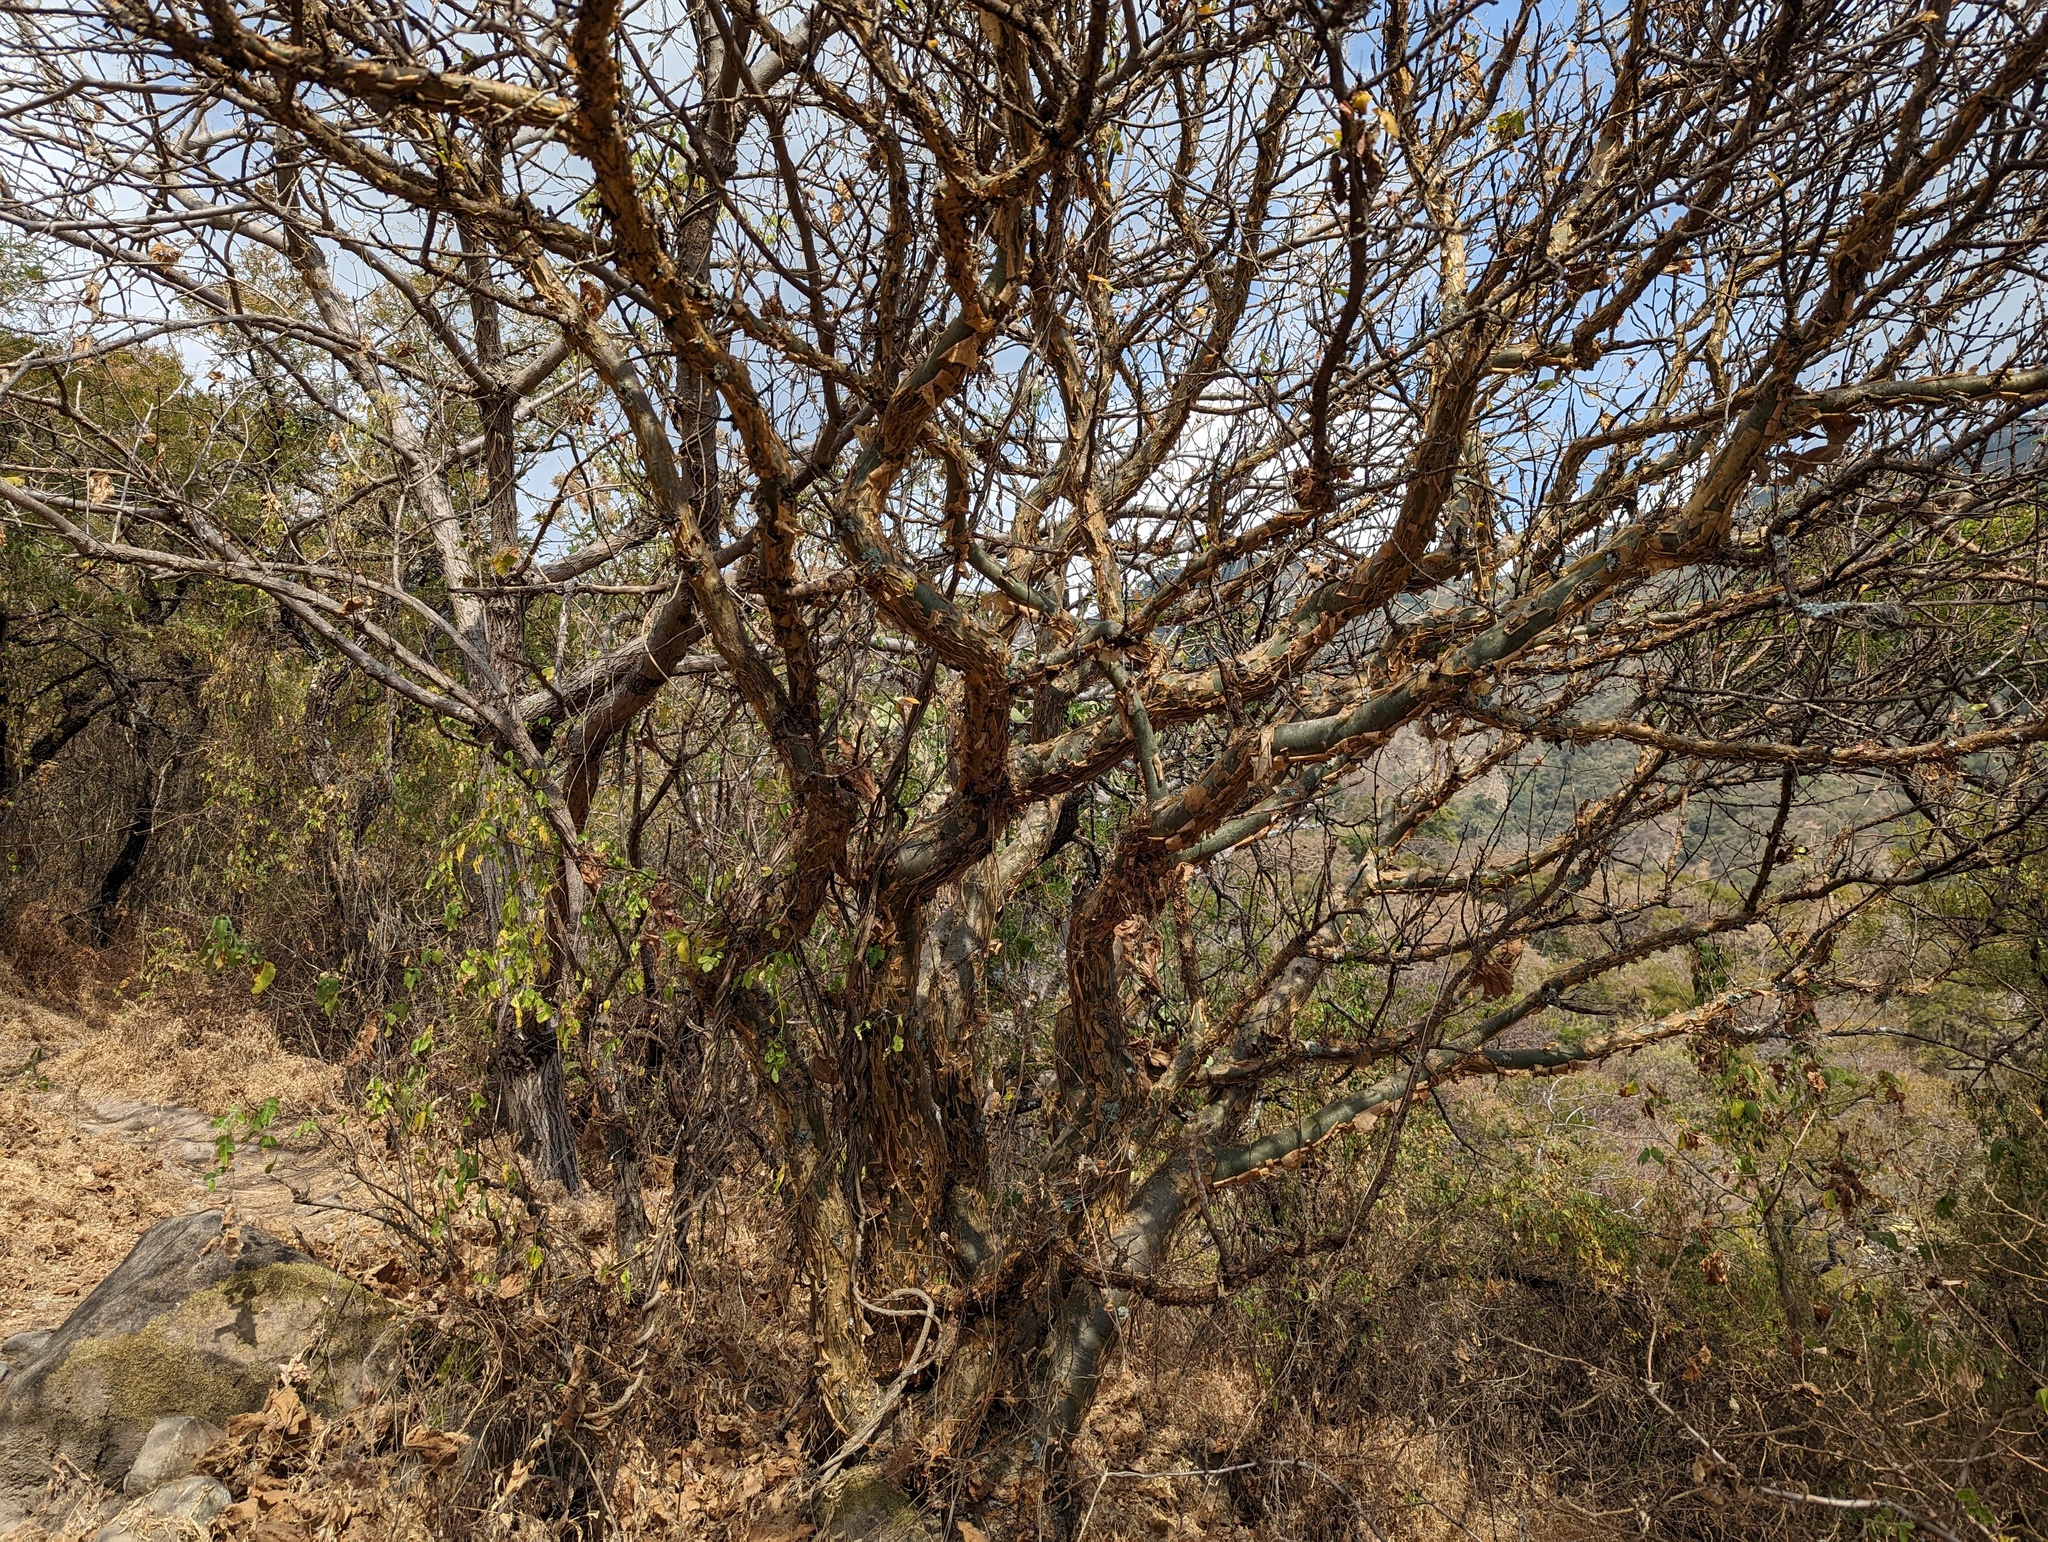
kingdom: Plantae
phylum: Tracheophyta
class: Magnoliopsida
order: Sapindales
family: Burseraceae
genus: Bursera
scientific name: Bursera fagaroides
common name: Elephant tree
